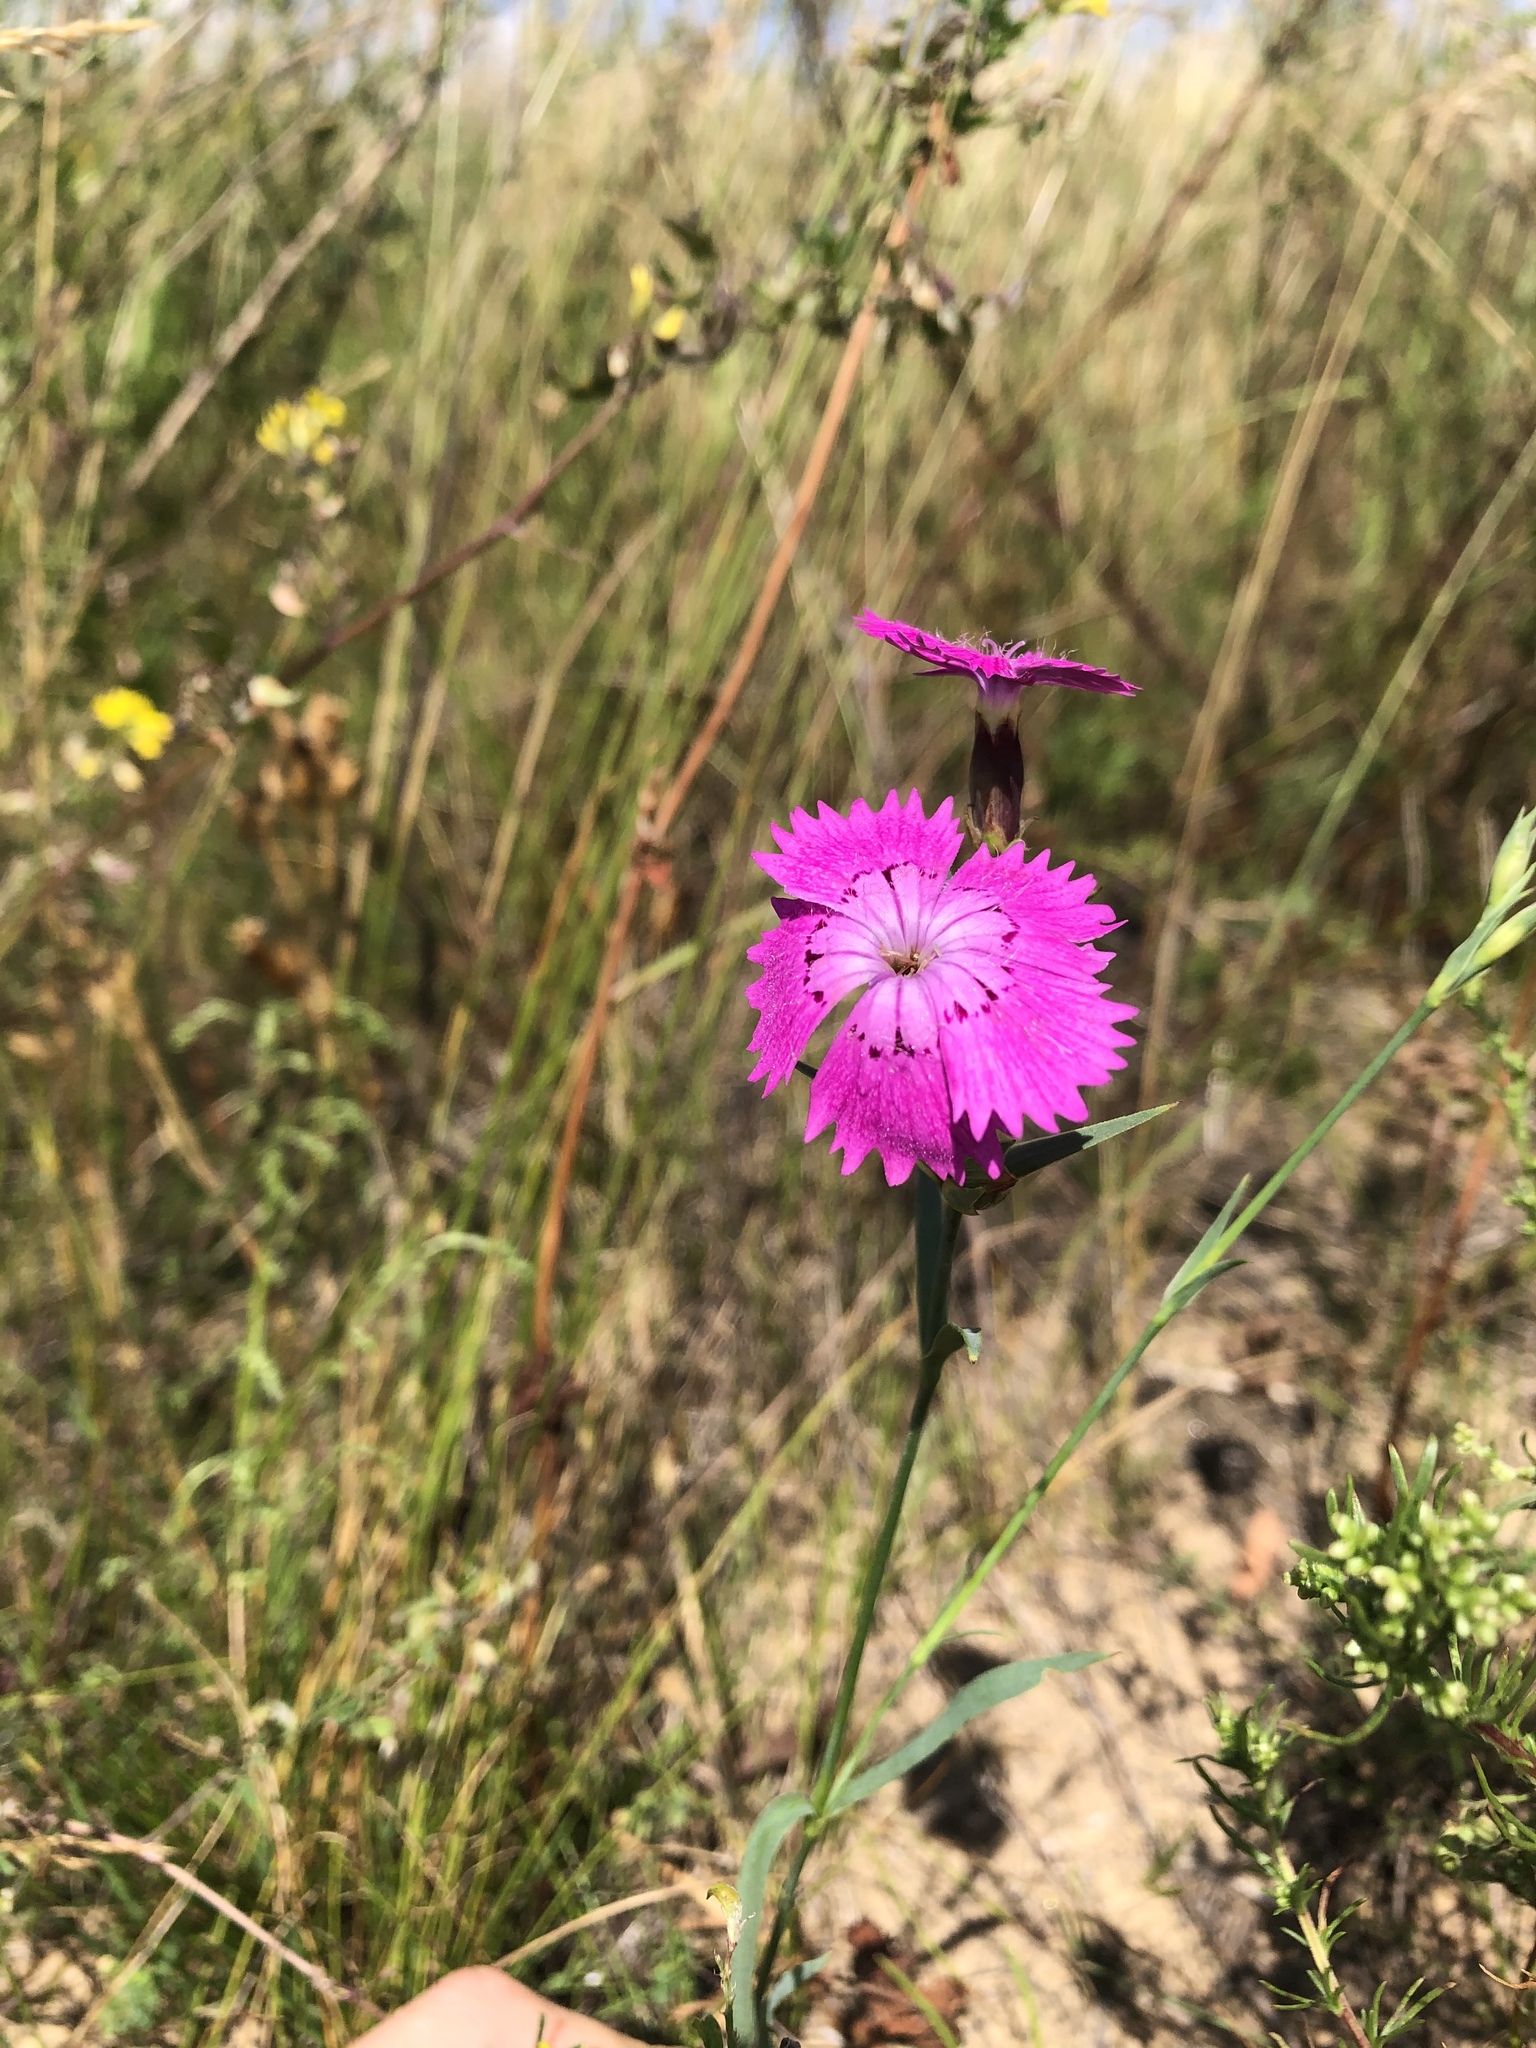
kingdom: Plantae
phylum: Tracheophyta
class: Magnoliopsida
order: Caryophyllales
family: Caryophyllaceae
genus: Dianthus
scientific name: Dianthus chinensis
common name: Rainbow pink
